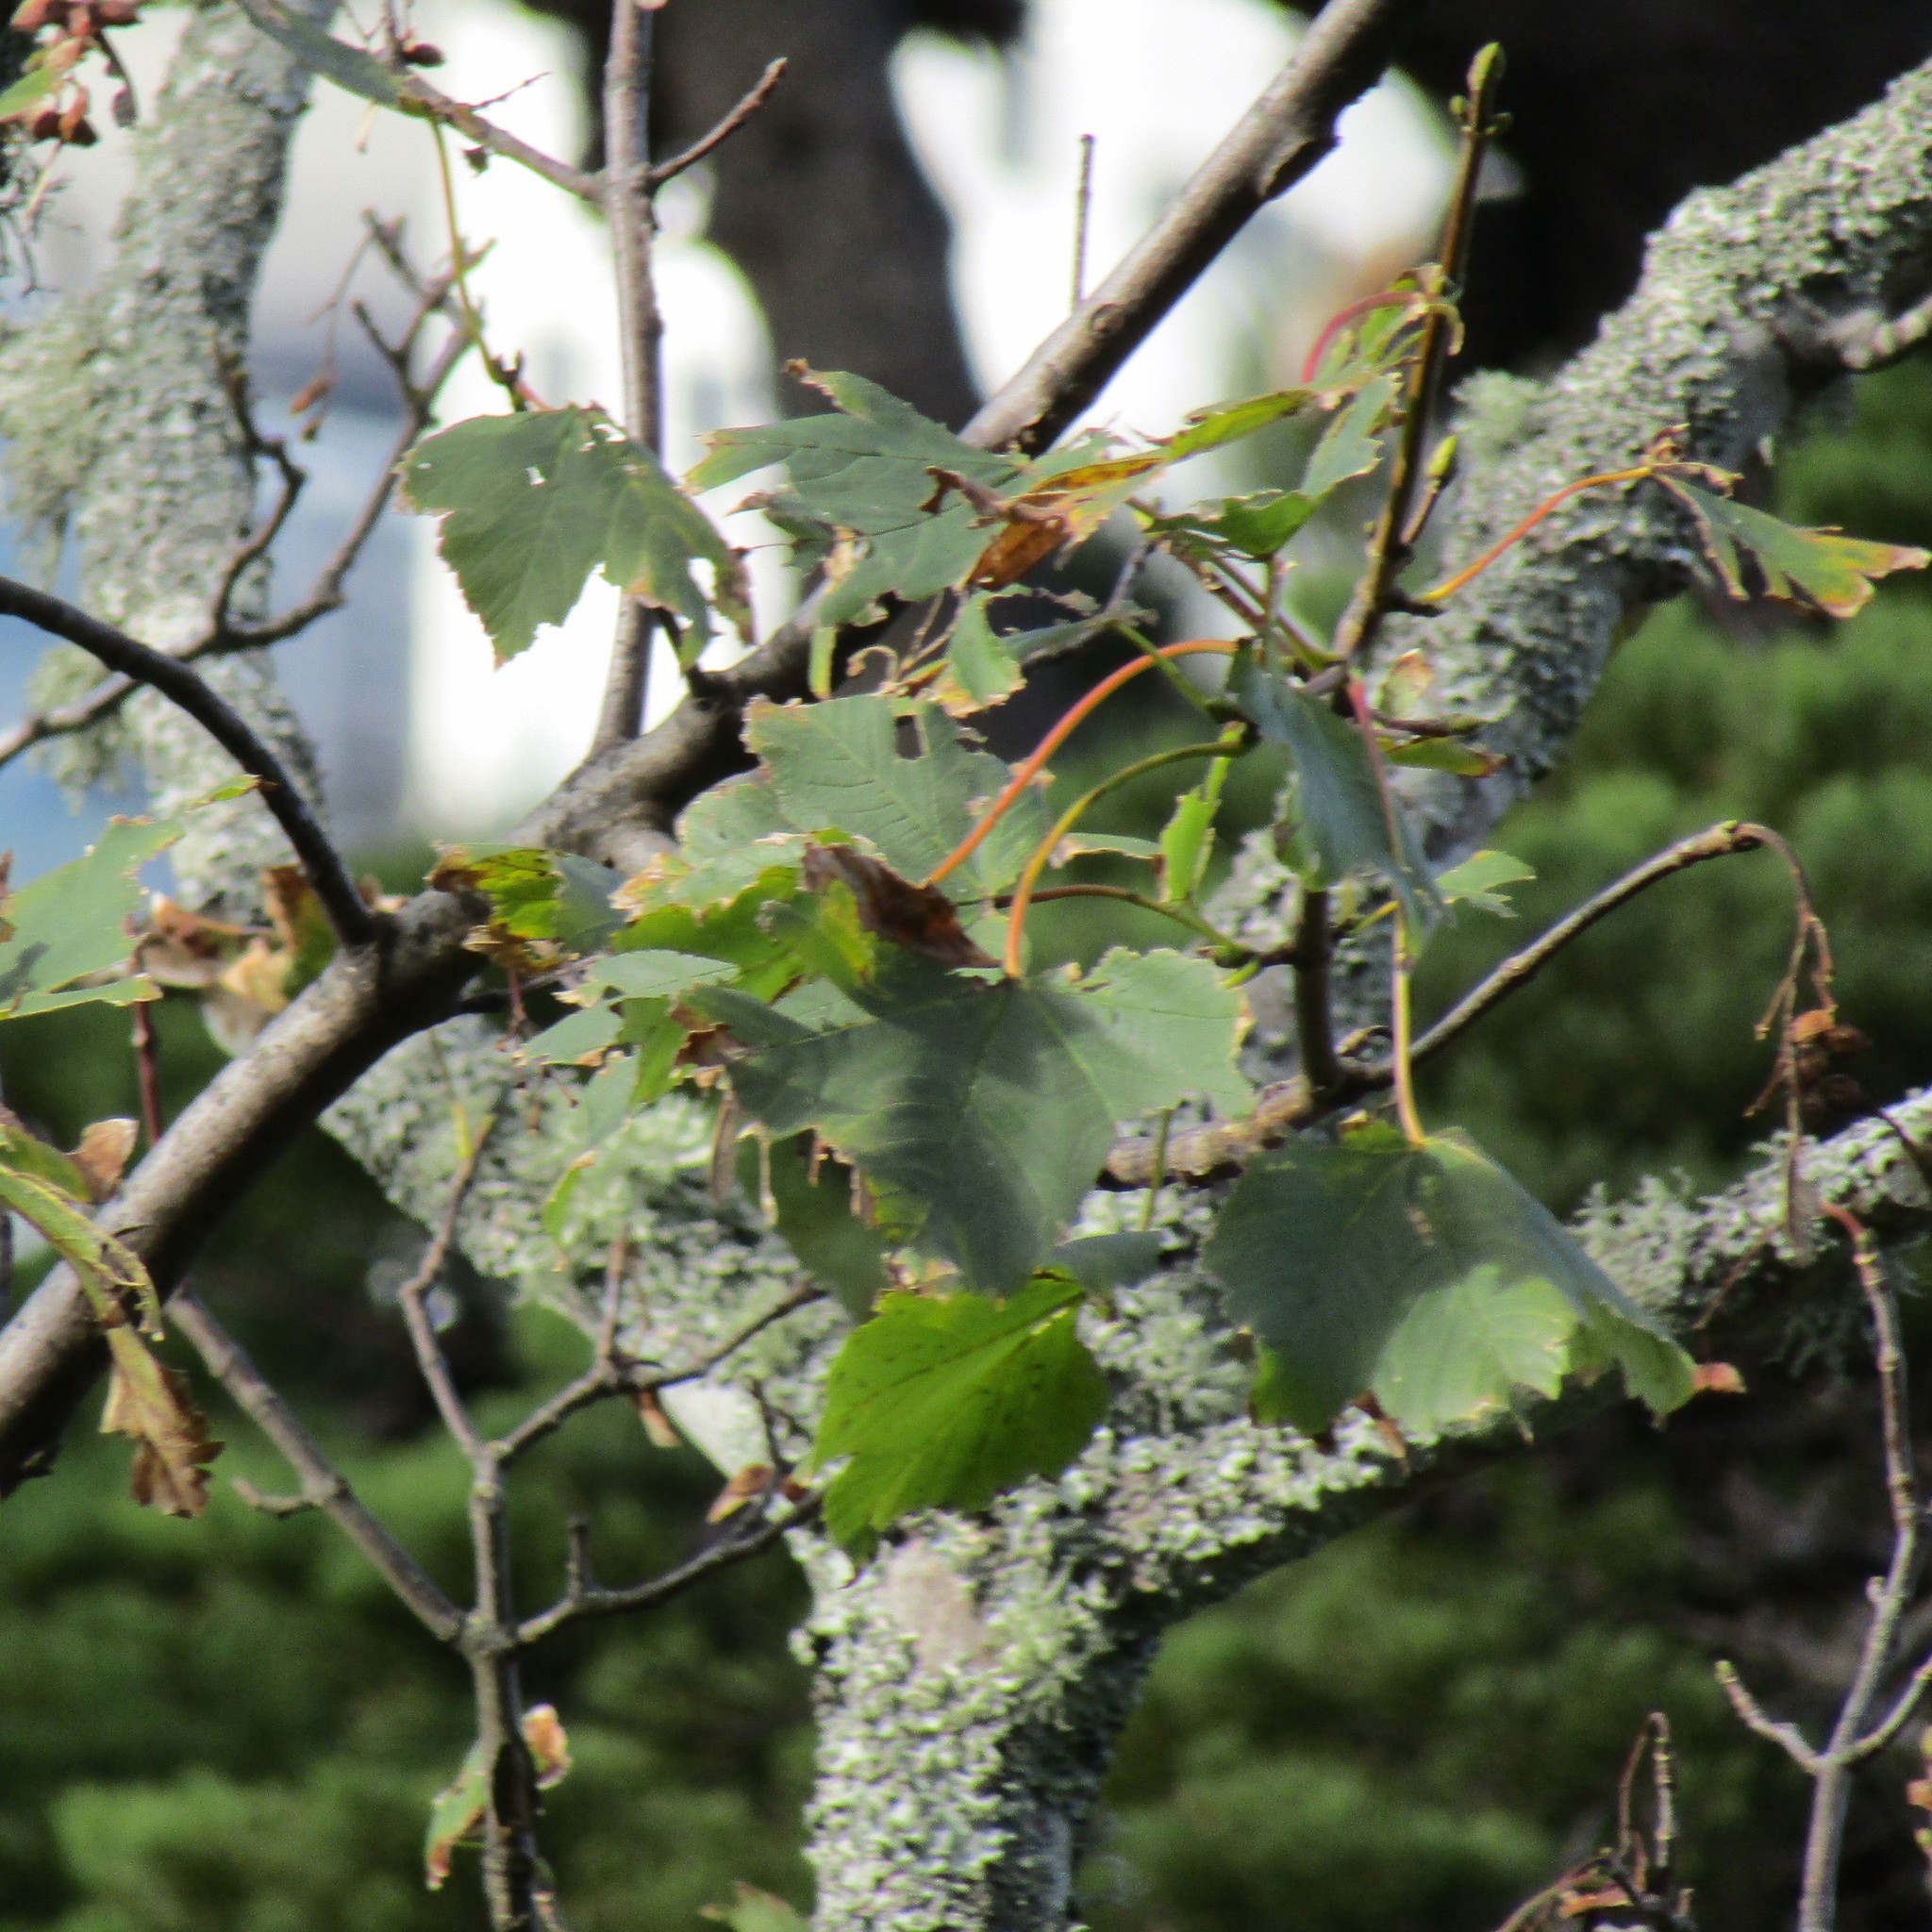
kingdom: Plantae
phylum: Tracheophyta
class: Magnoliopsida
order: Sapindales
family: Sapindaceae
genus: Acer
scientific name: Acer pseudoplatanus
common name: Sycamore
